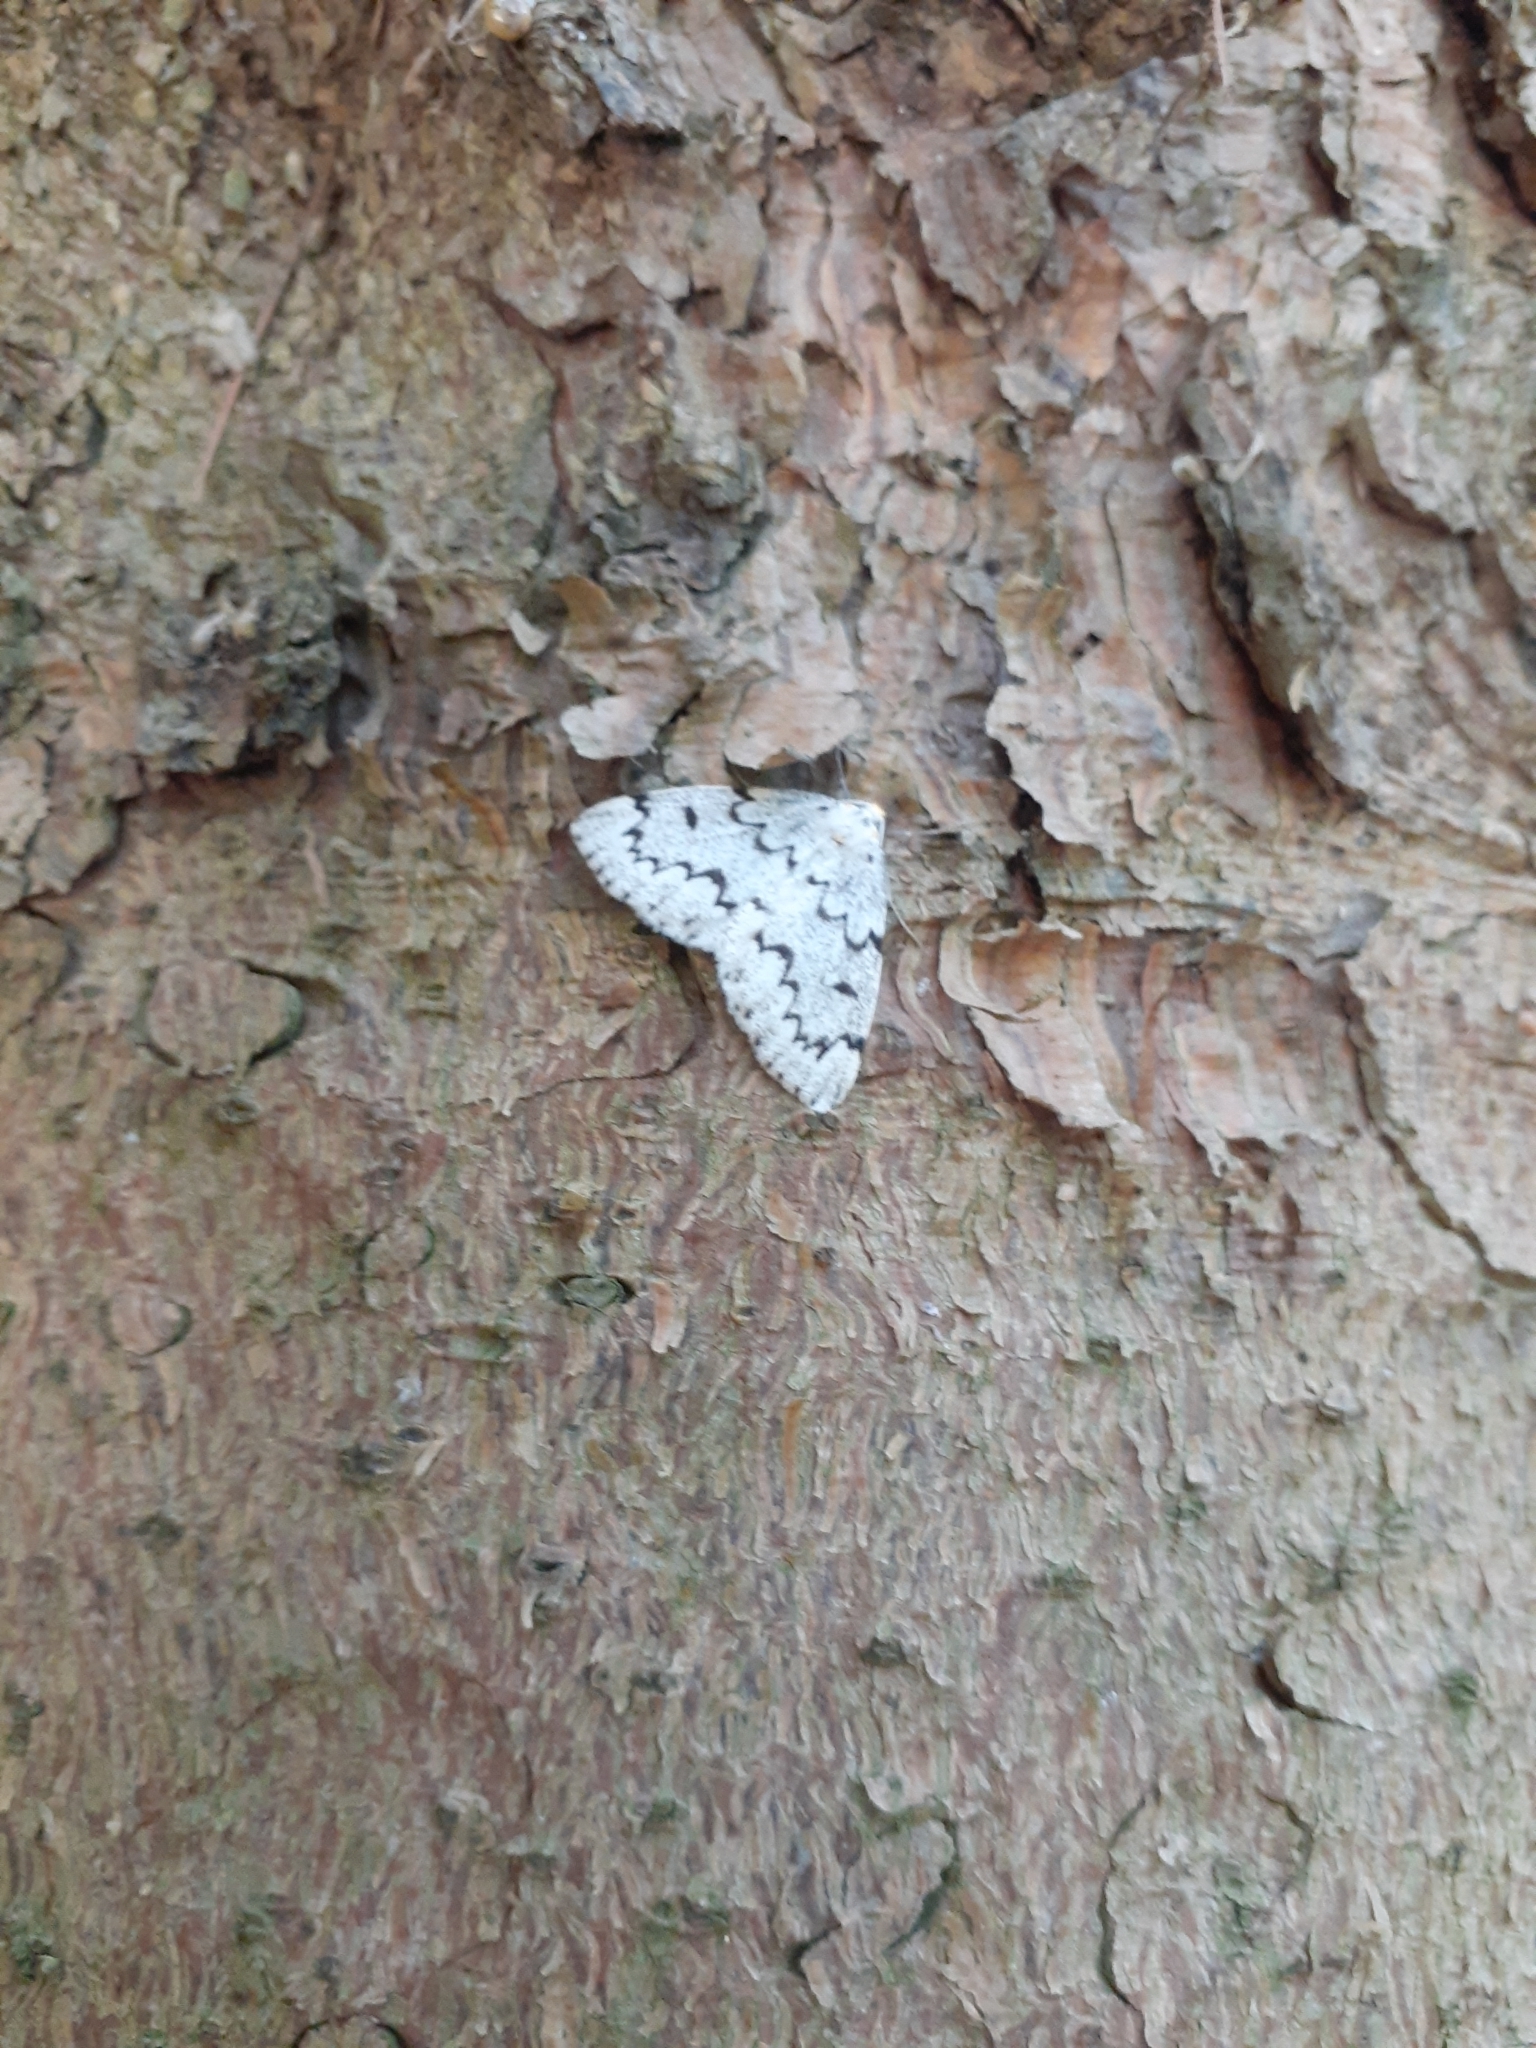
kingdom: Animalia
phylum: Arthropoda
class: Insecta
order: Lepidoptera
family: Geometridae
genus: Nepytia
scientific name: Nepytia canosaria
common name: False hemlock looper
